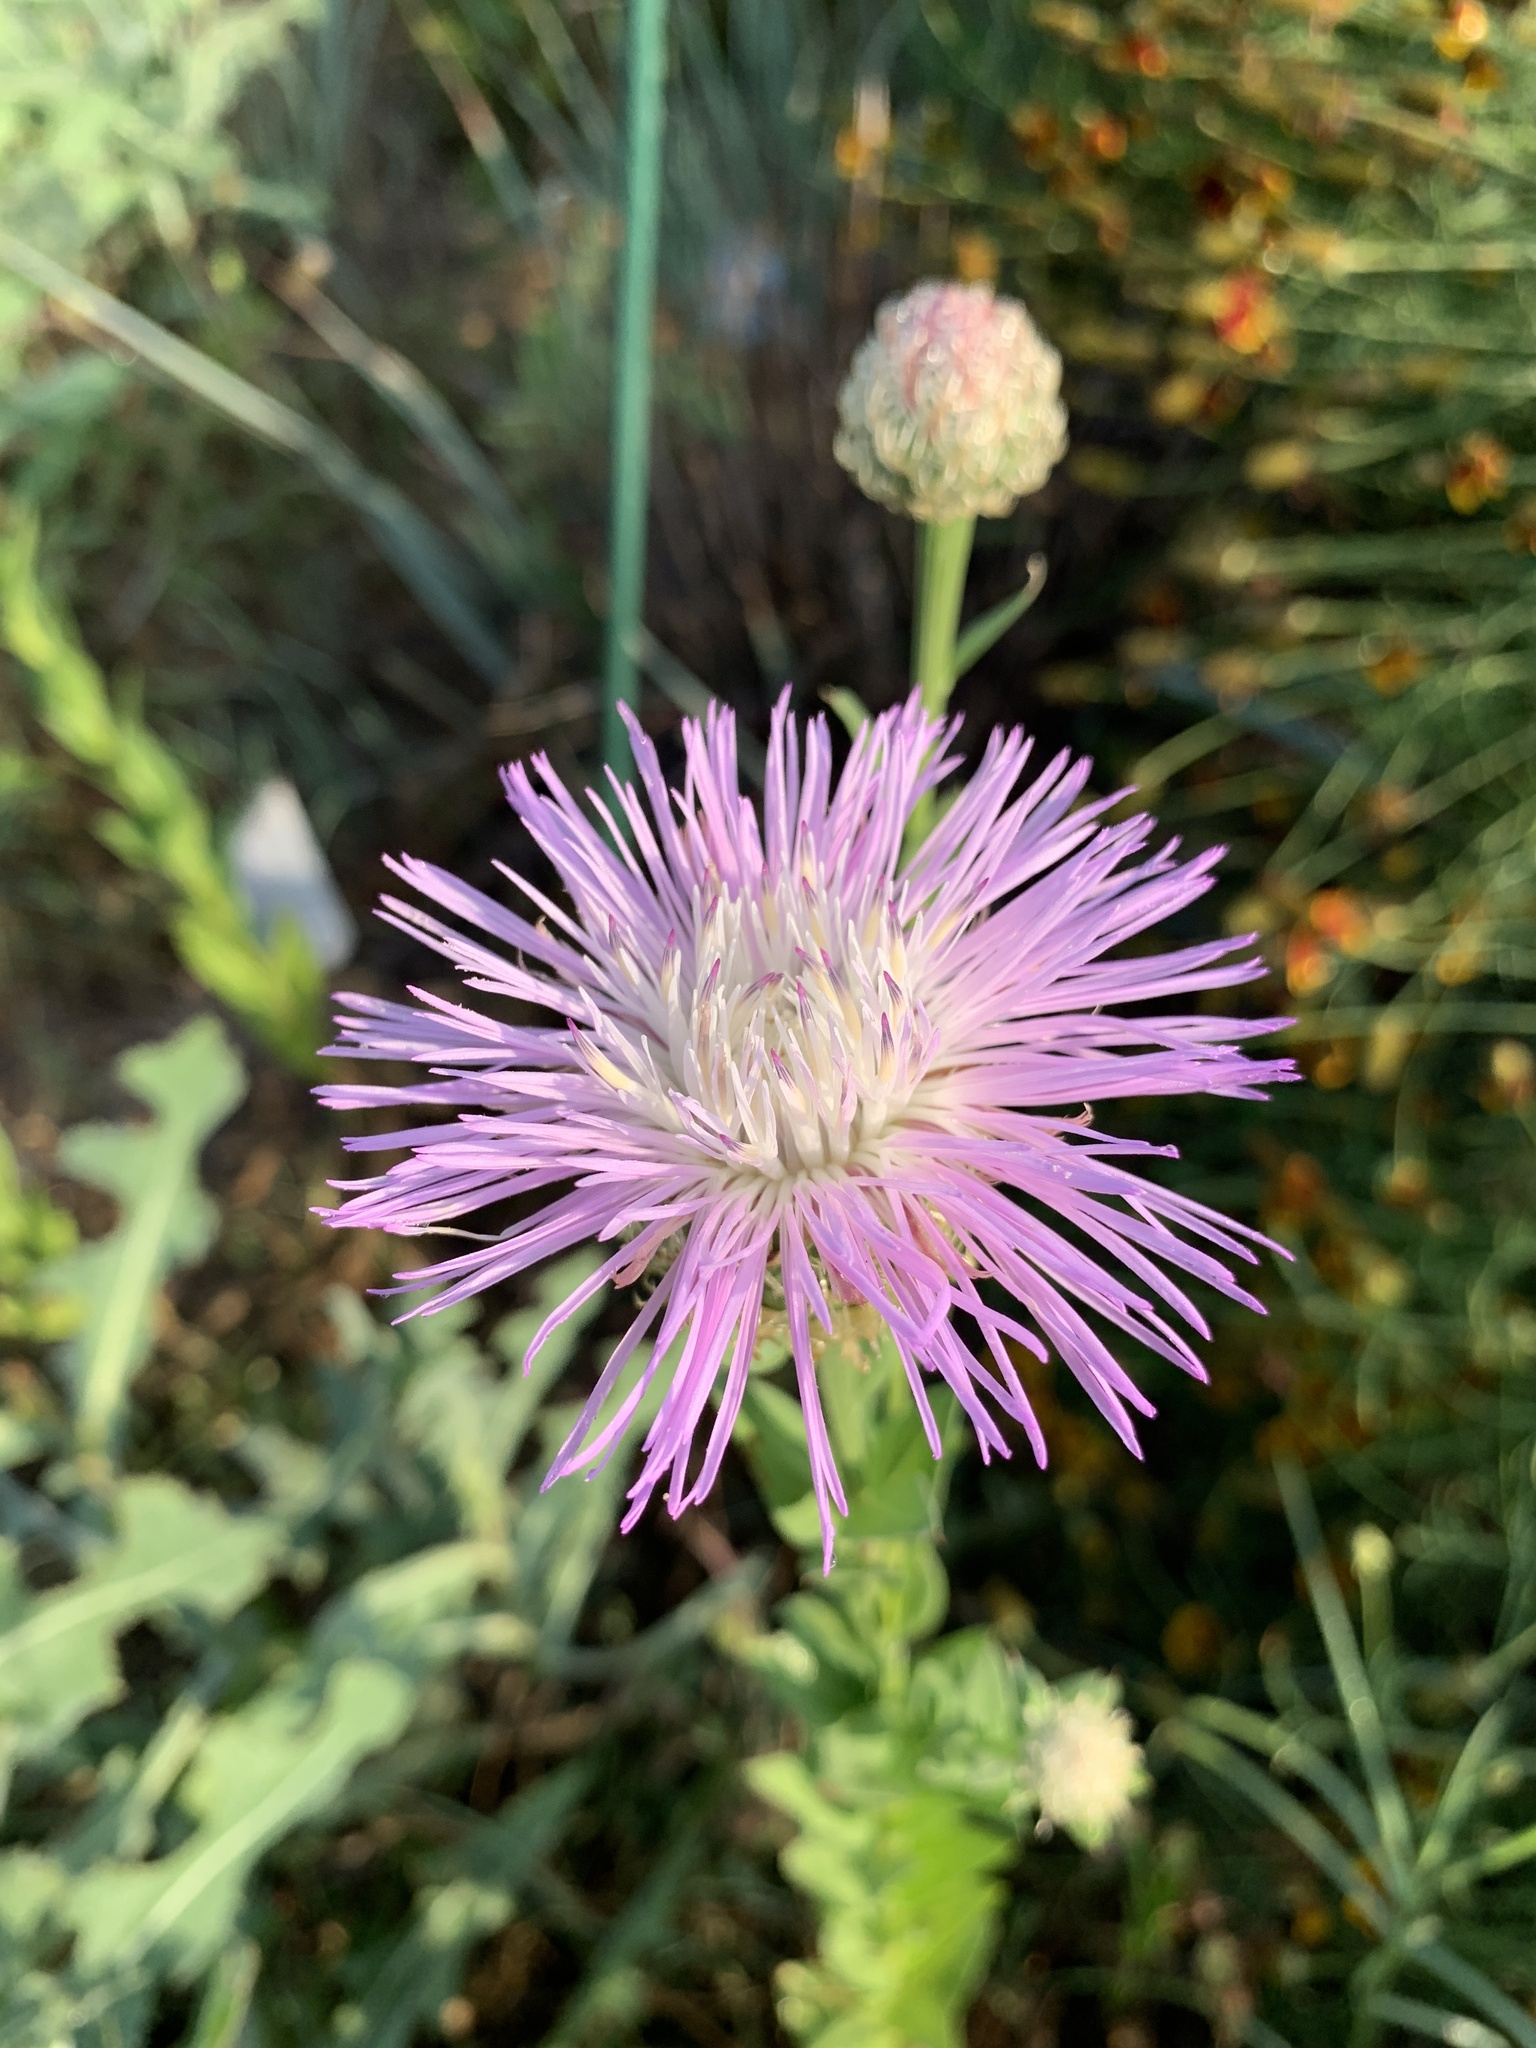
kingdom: Plantae
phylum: Tracheophyta
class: Magnoliopsida
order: Asterales
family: Asteraceae
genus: Plectocephalus
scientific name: Plectocephalus americanus
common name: American basket-flower
